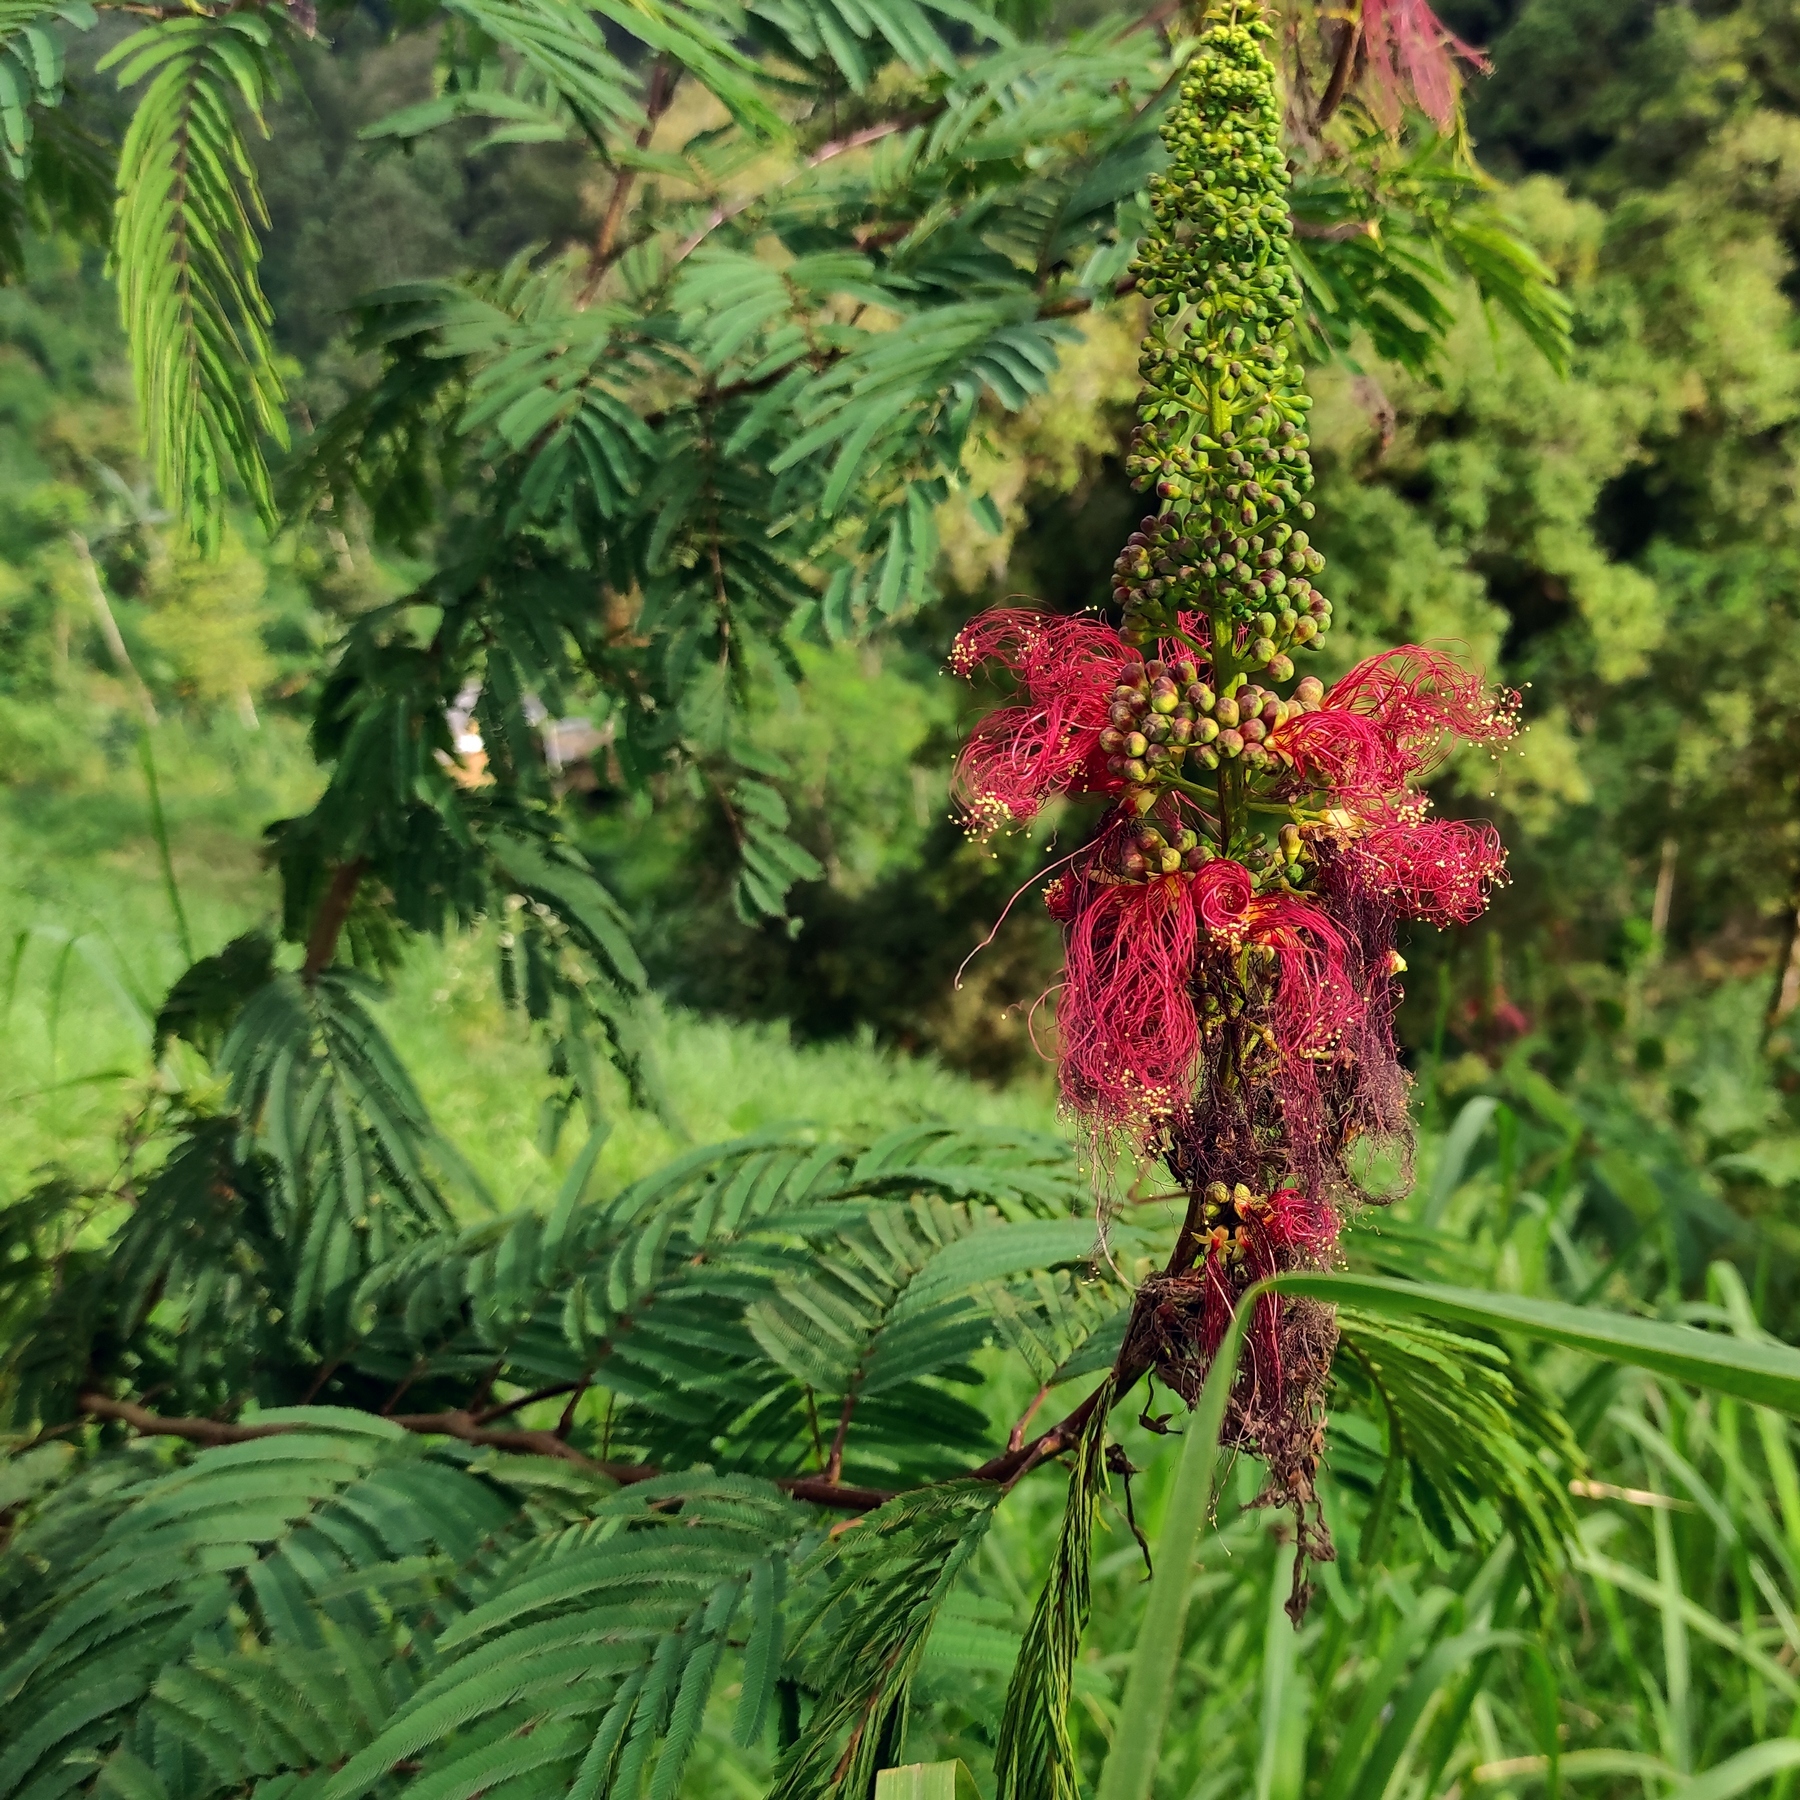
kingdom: Plantae
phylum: Tracheophyta
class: Magnoliopsida
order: Fabales
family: Fabaceae
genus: Calliandra
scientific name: Calliandra houstoniana
